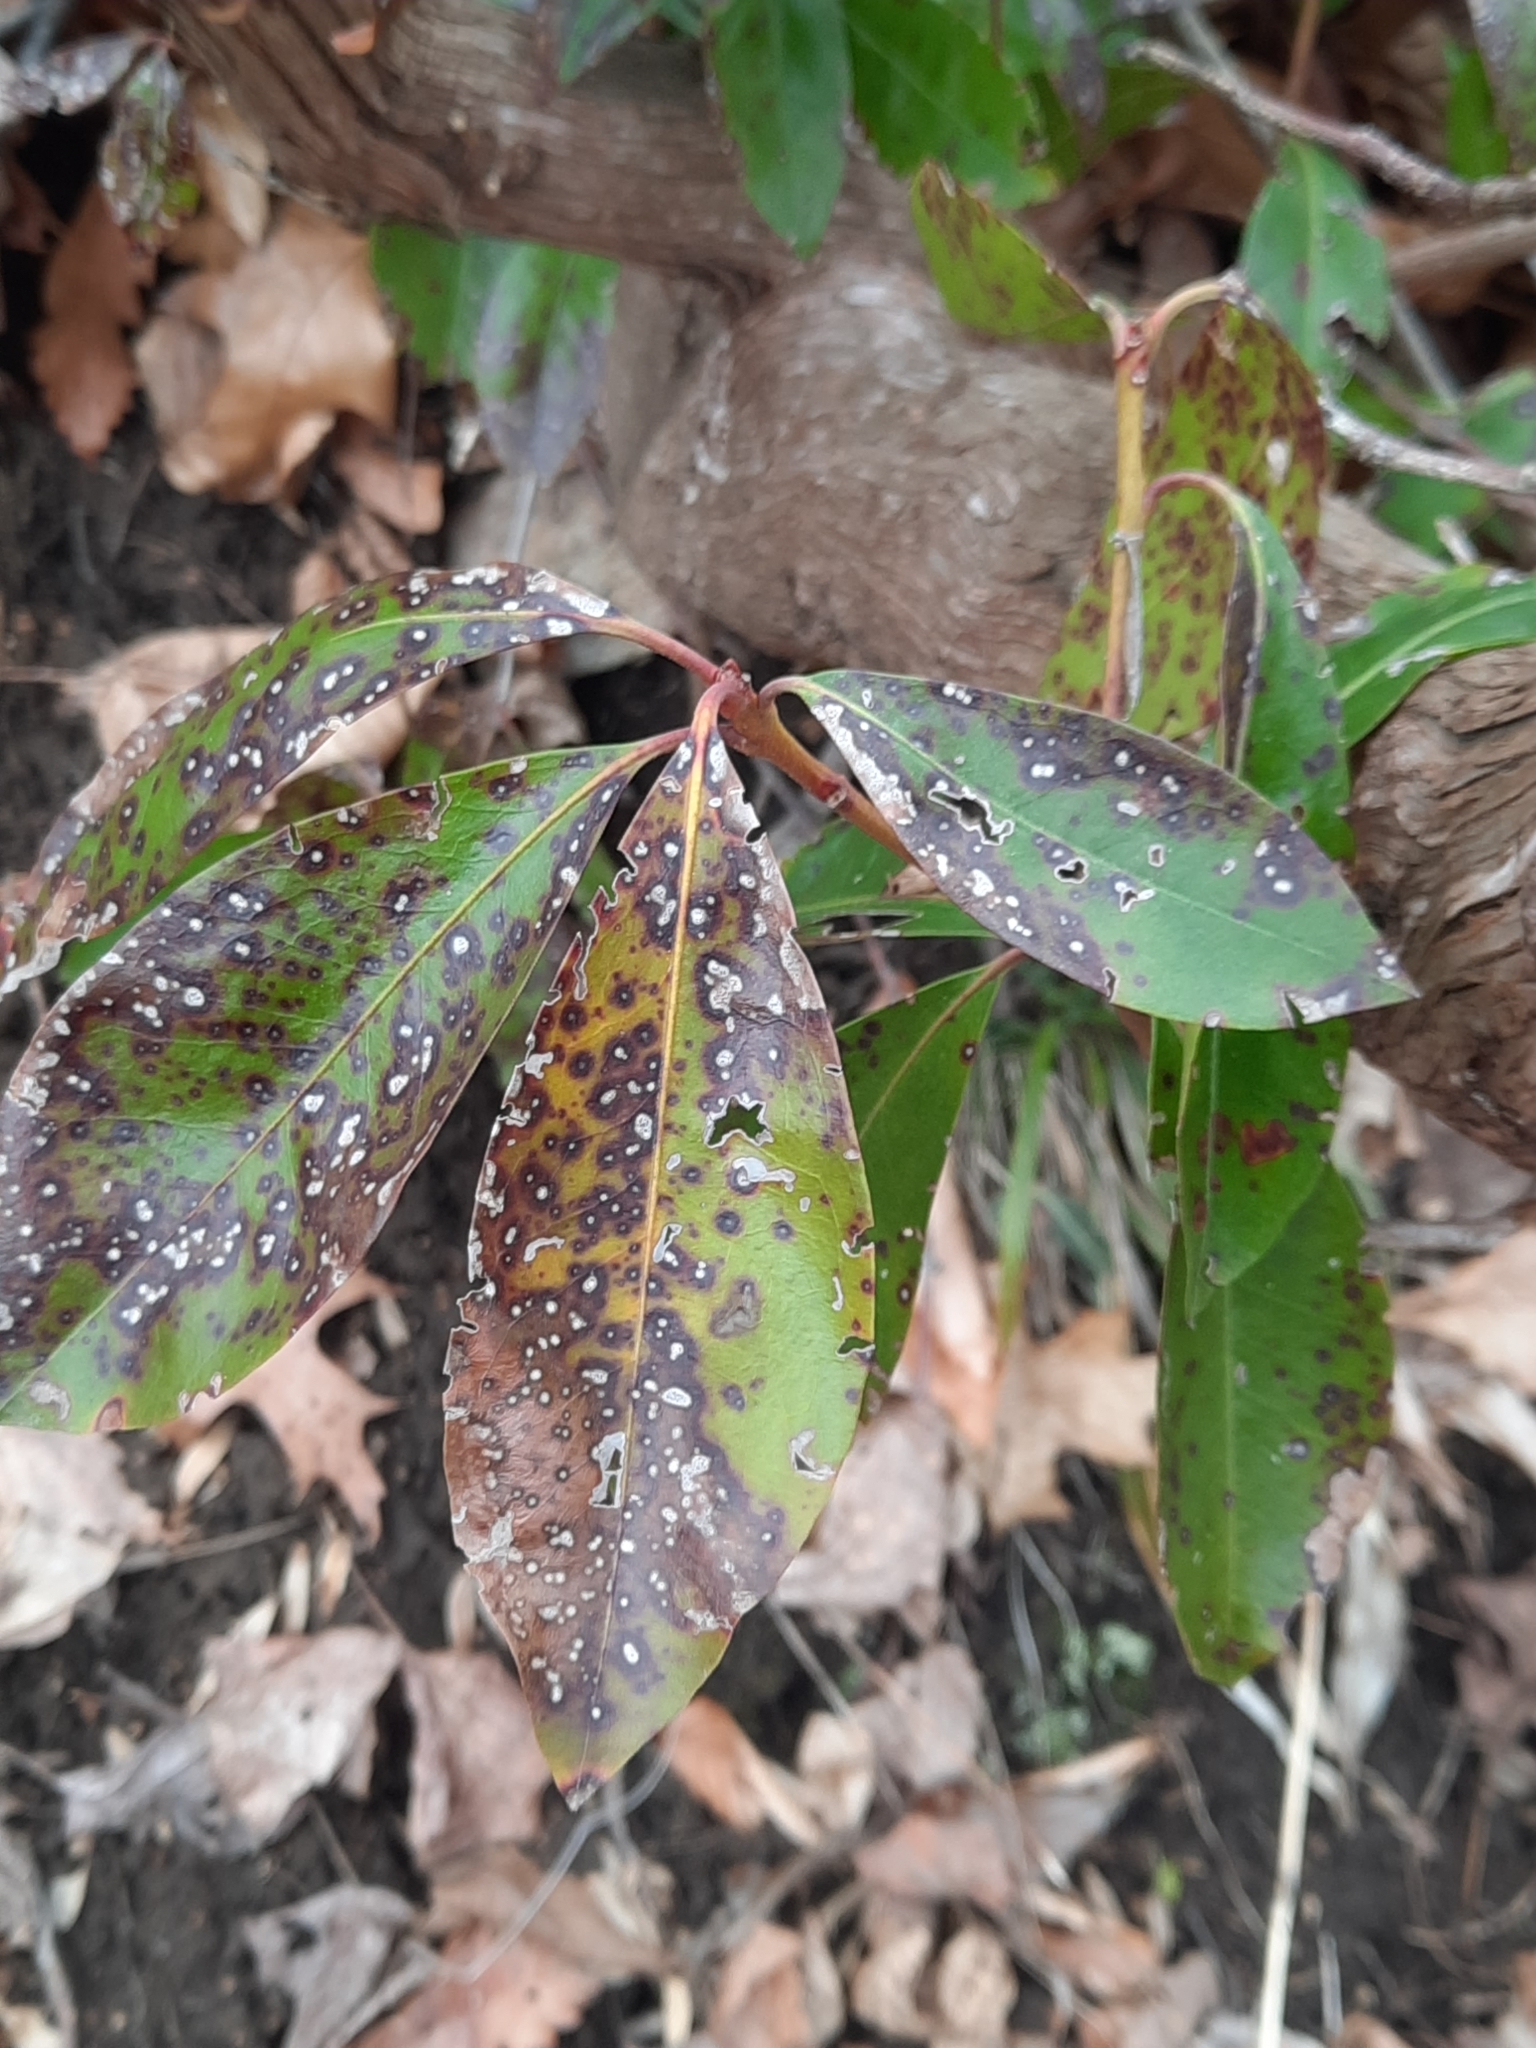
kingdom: Plantae
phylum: Tracheophyta
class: Magnoliopsida
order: Ericales
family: Ericaceae
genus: Kalmia
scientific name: Kalmia latifolia
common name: Mountain-laurel
